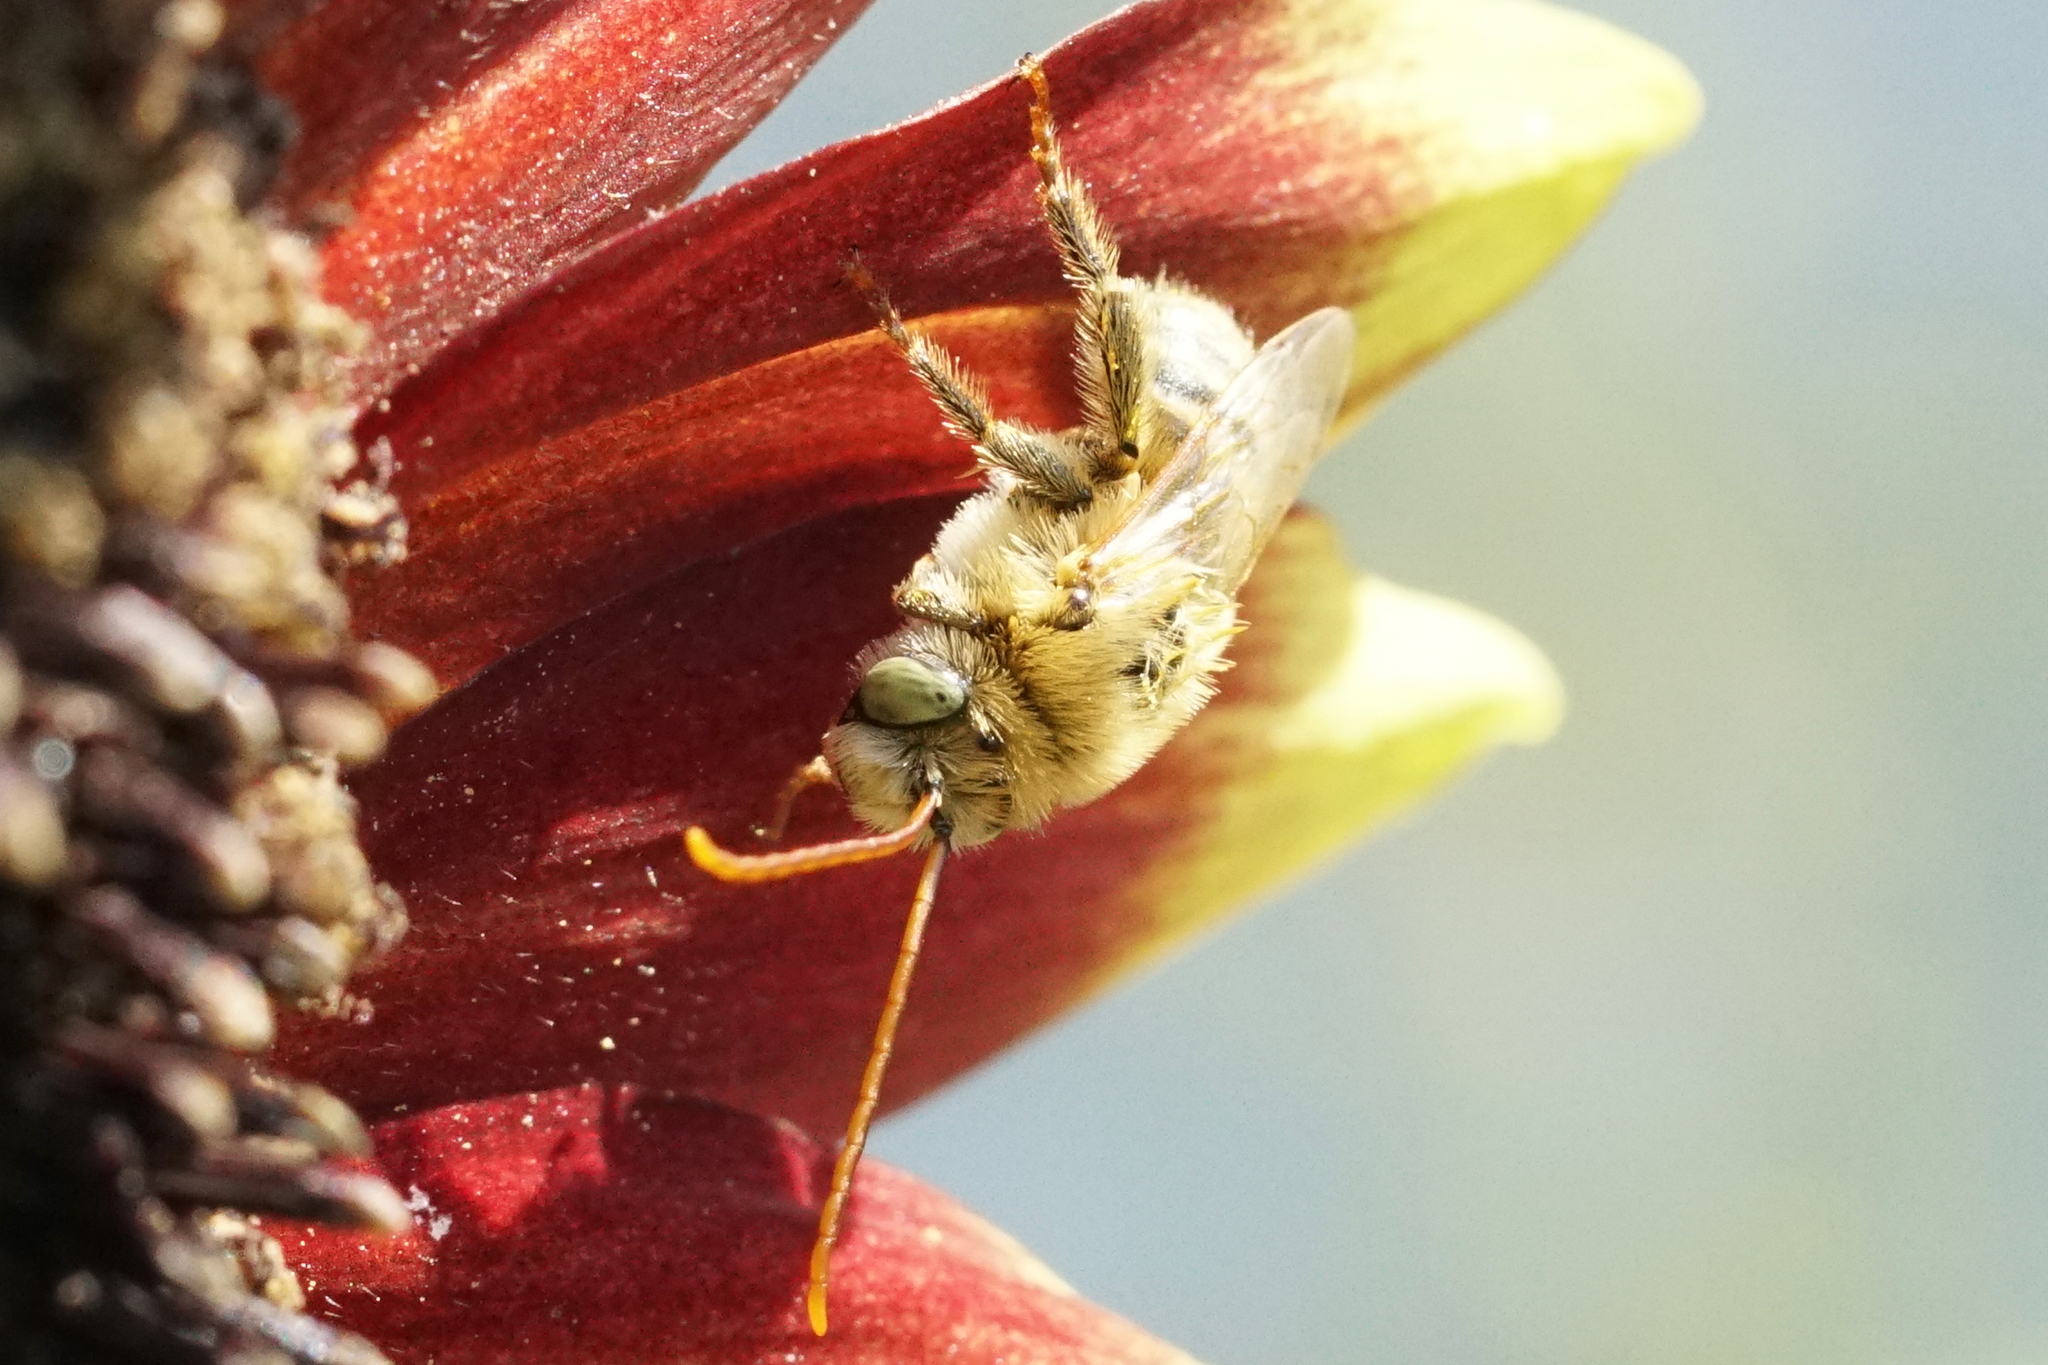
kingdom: Animalia
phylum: Arthropoda
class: Insecta
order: Hymenoptera
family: Apidae
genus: Melissodes
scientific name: Melissodes agilis
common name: Agile long-horned bee
